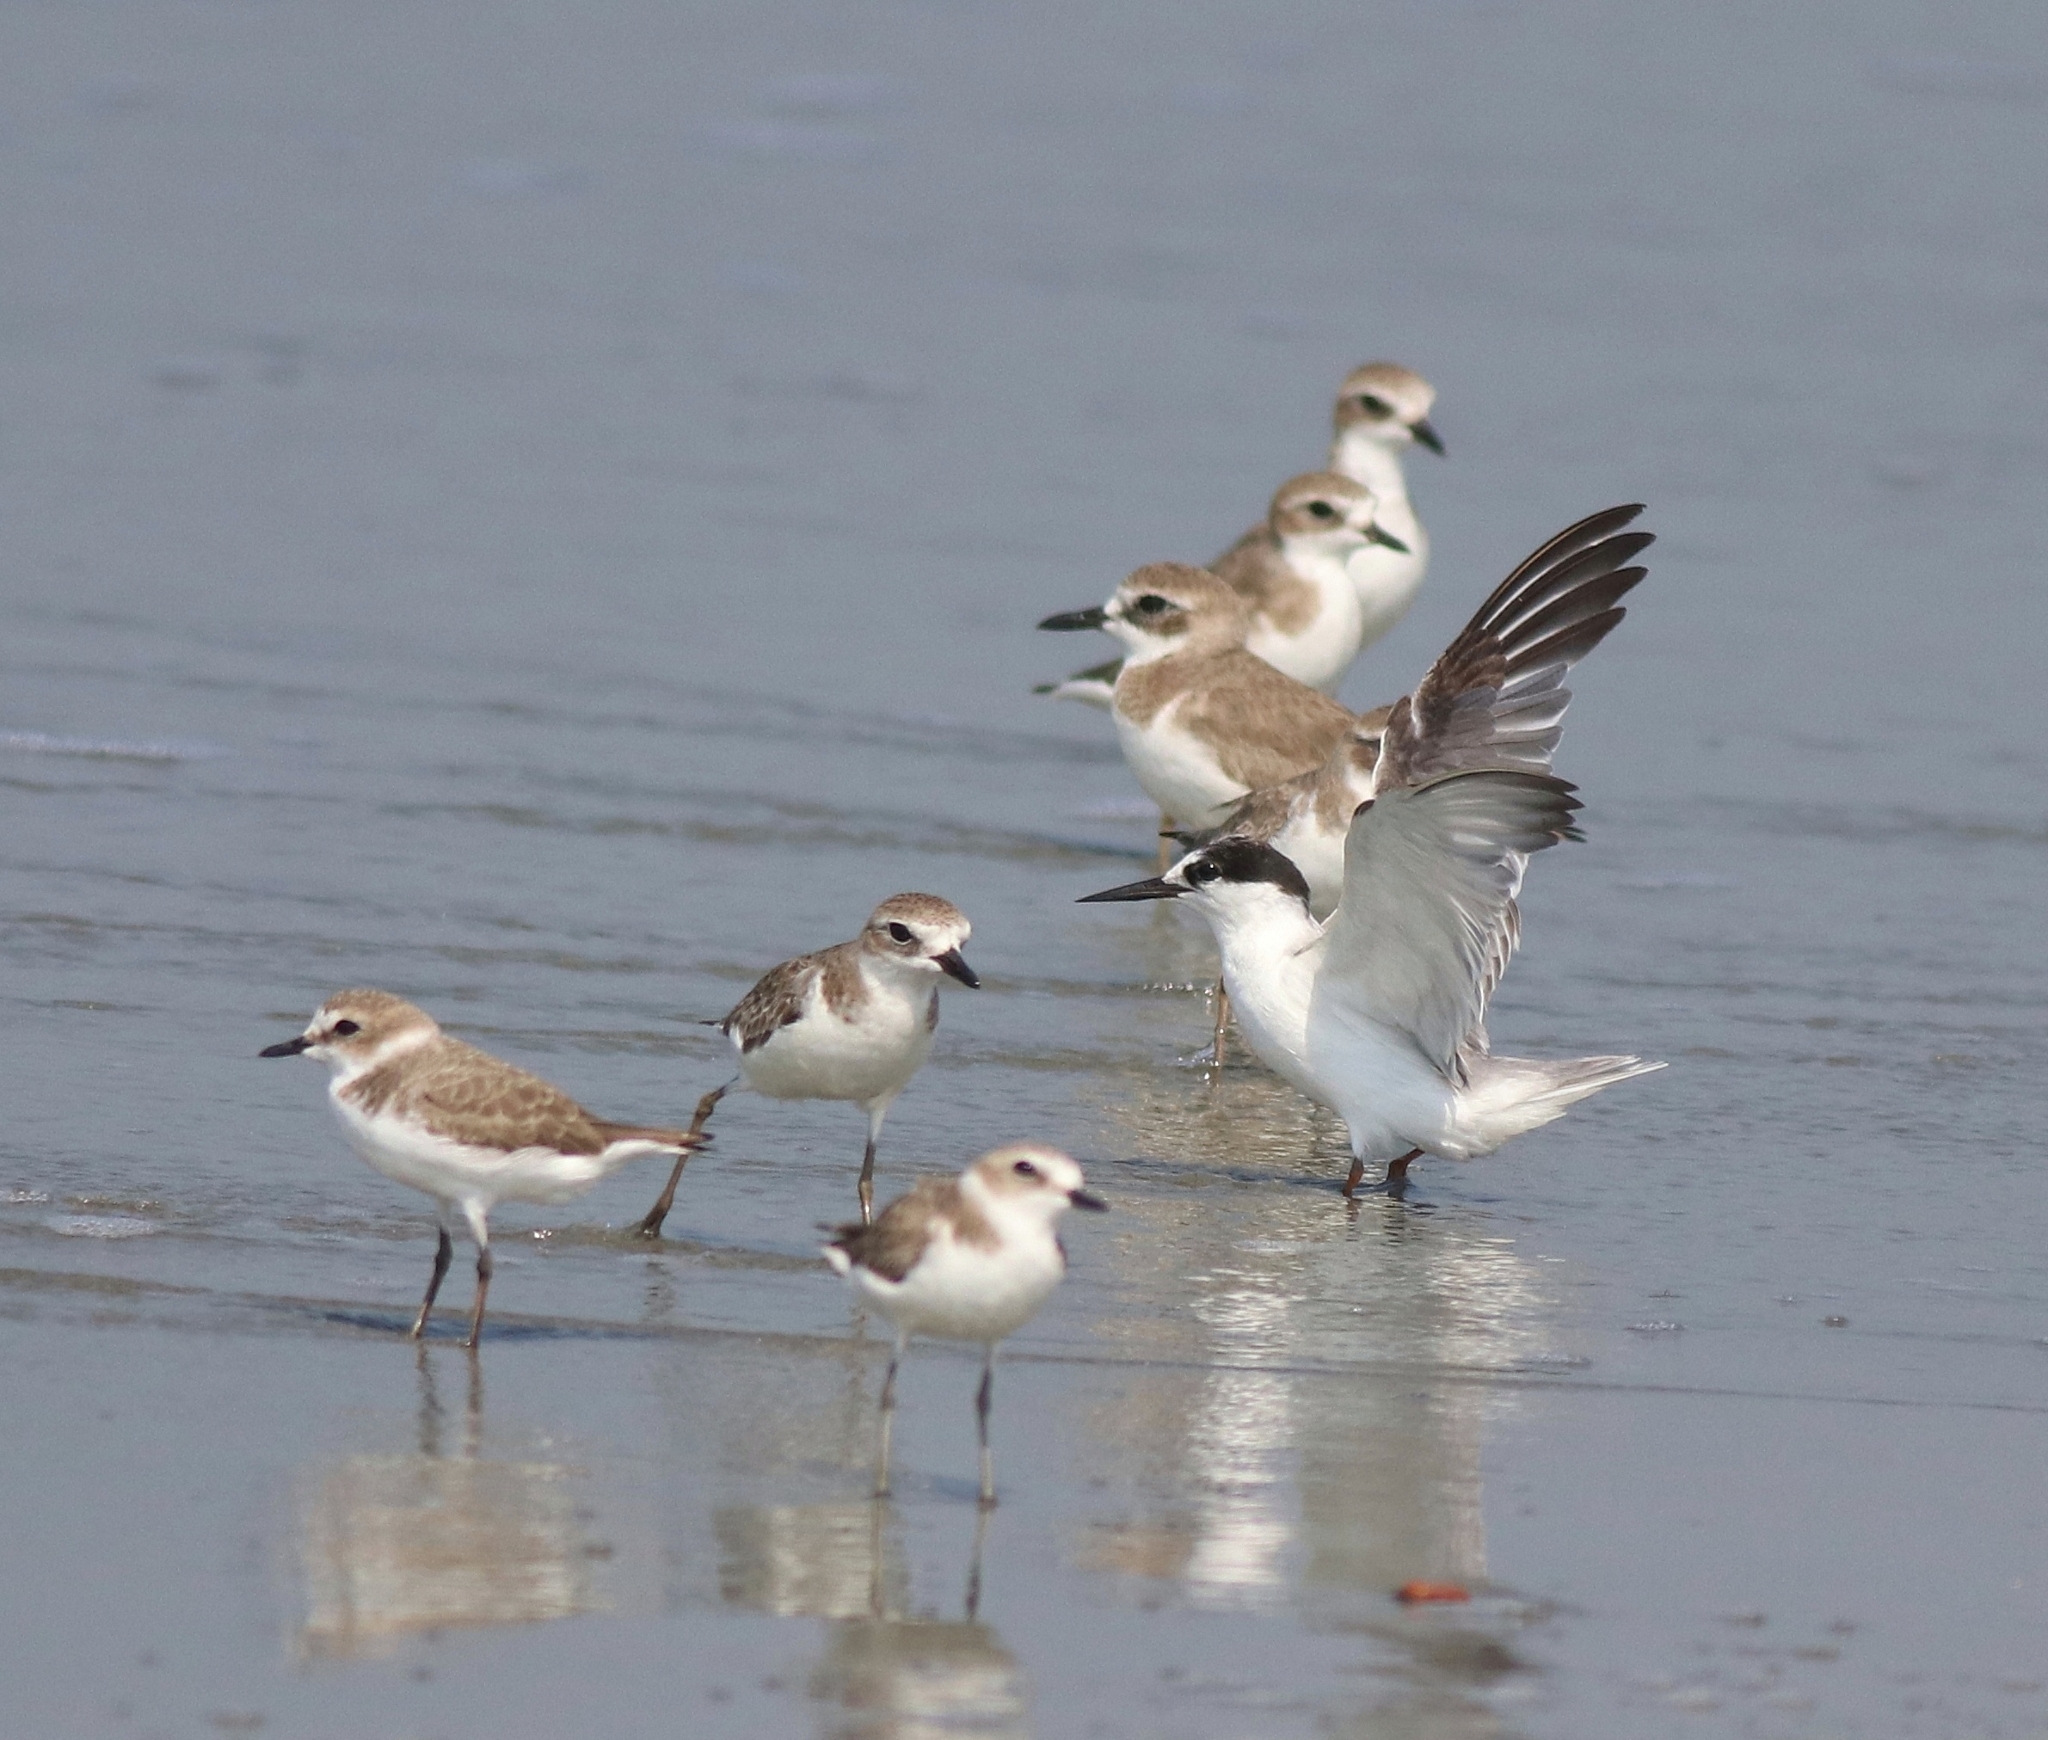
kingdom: Animalia
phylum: Chordata
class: Aves
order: Charadriiformes
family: Charadriidae
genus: Charadrius
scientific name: Charadrius alexandrinus
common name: Kentish plover
